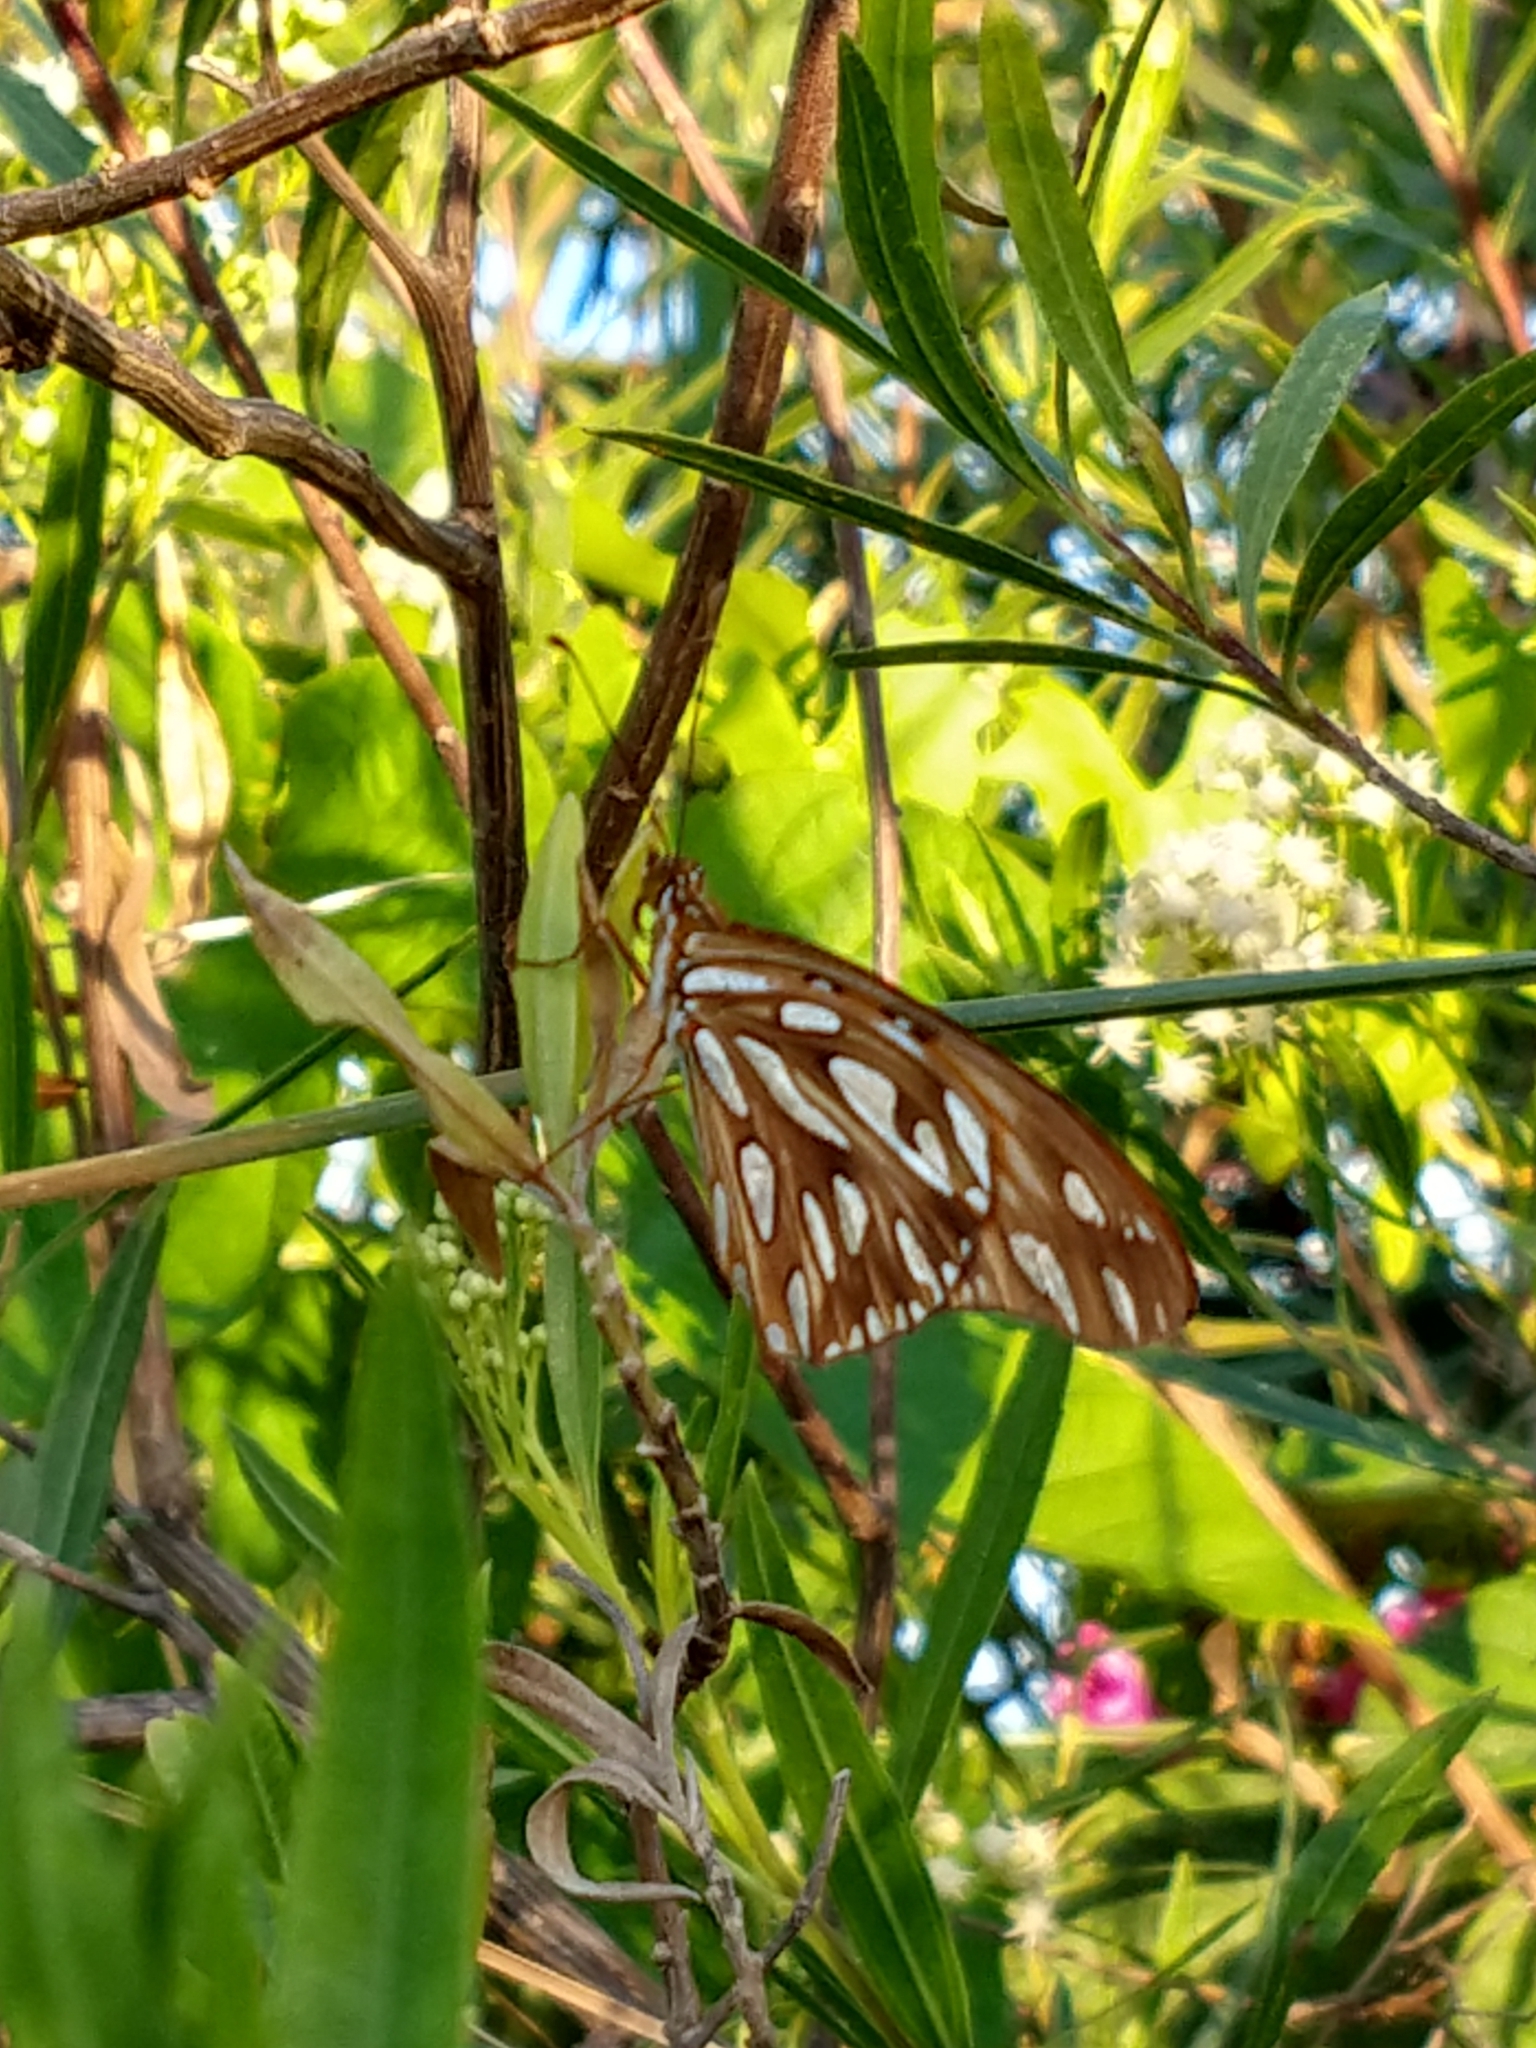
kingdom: Animalia
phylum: Arthropoda
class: Insecta
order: Lepidoptera
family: Nymphalidae
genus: Dione
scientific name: Dione vanillae
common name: Gulf fritillary
